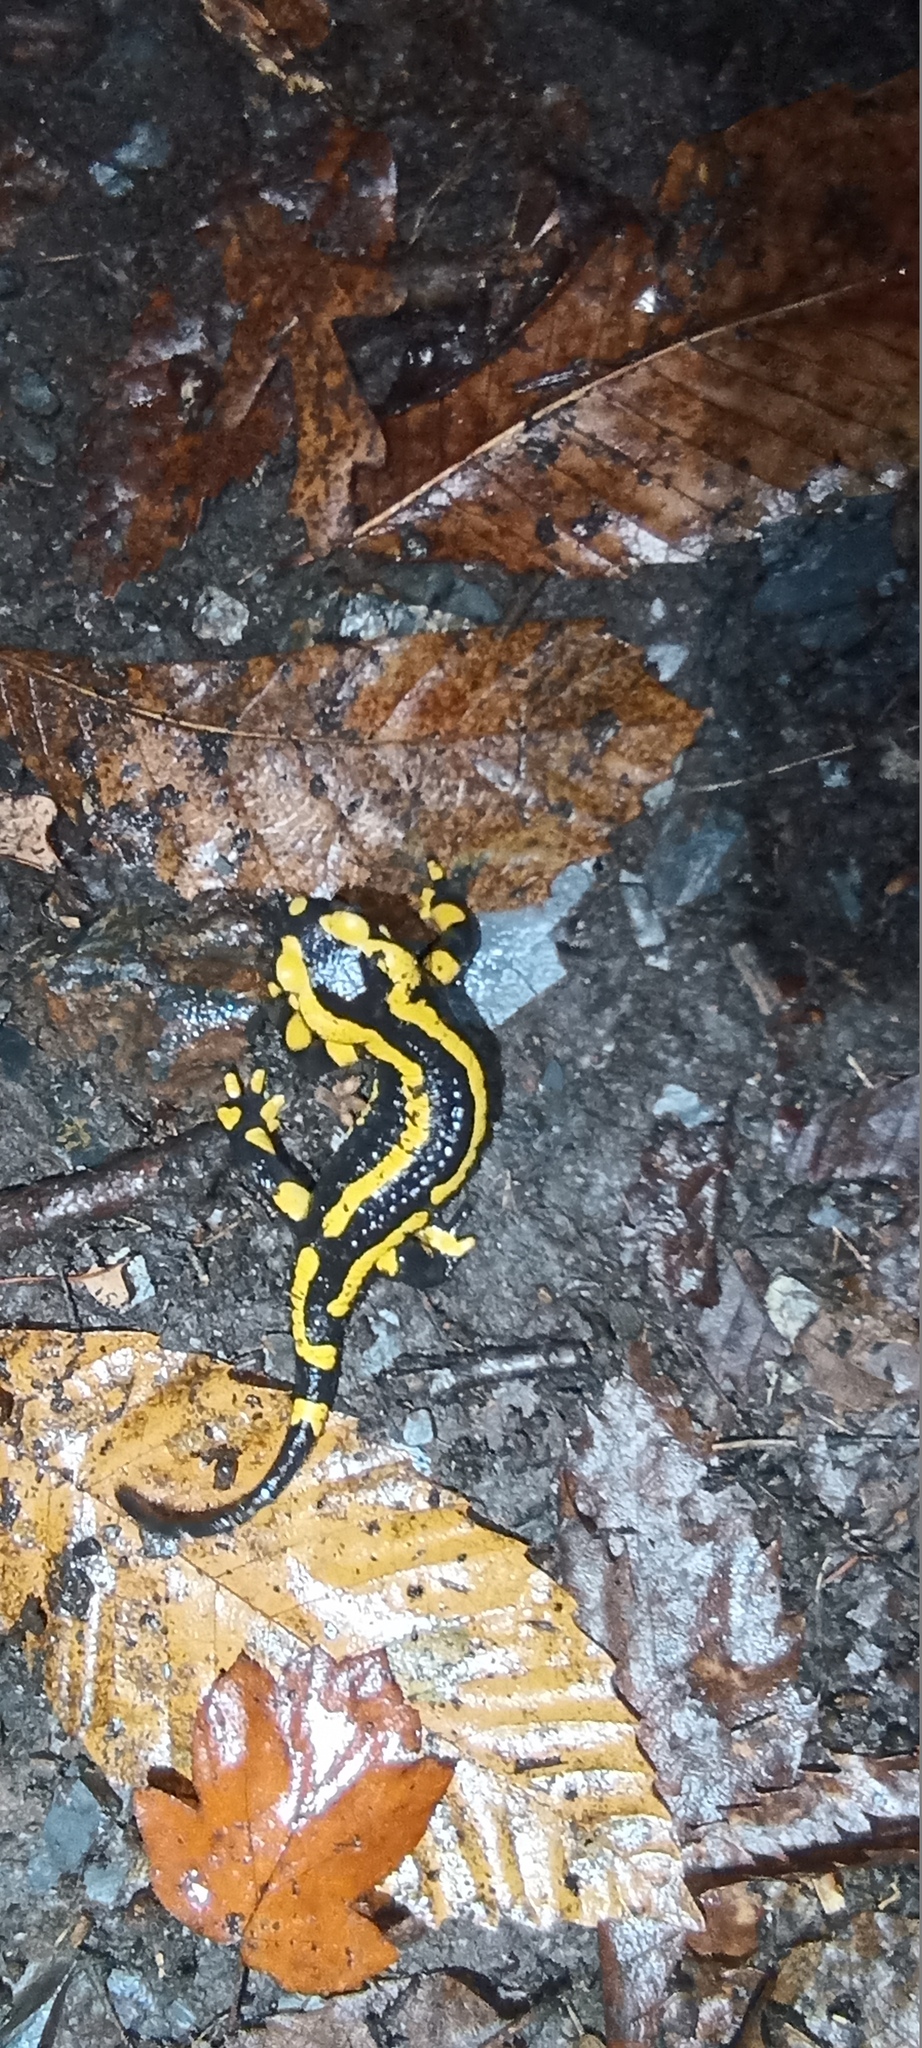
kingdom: Animalia
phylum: Chordata
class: Amphibia
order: Caudata
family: Salamandridae
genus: Salamandra
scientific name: Salamandra salamandra
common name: Fire salamander
